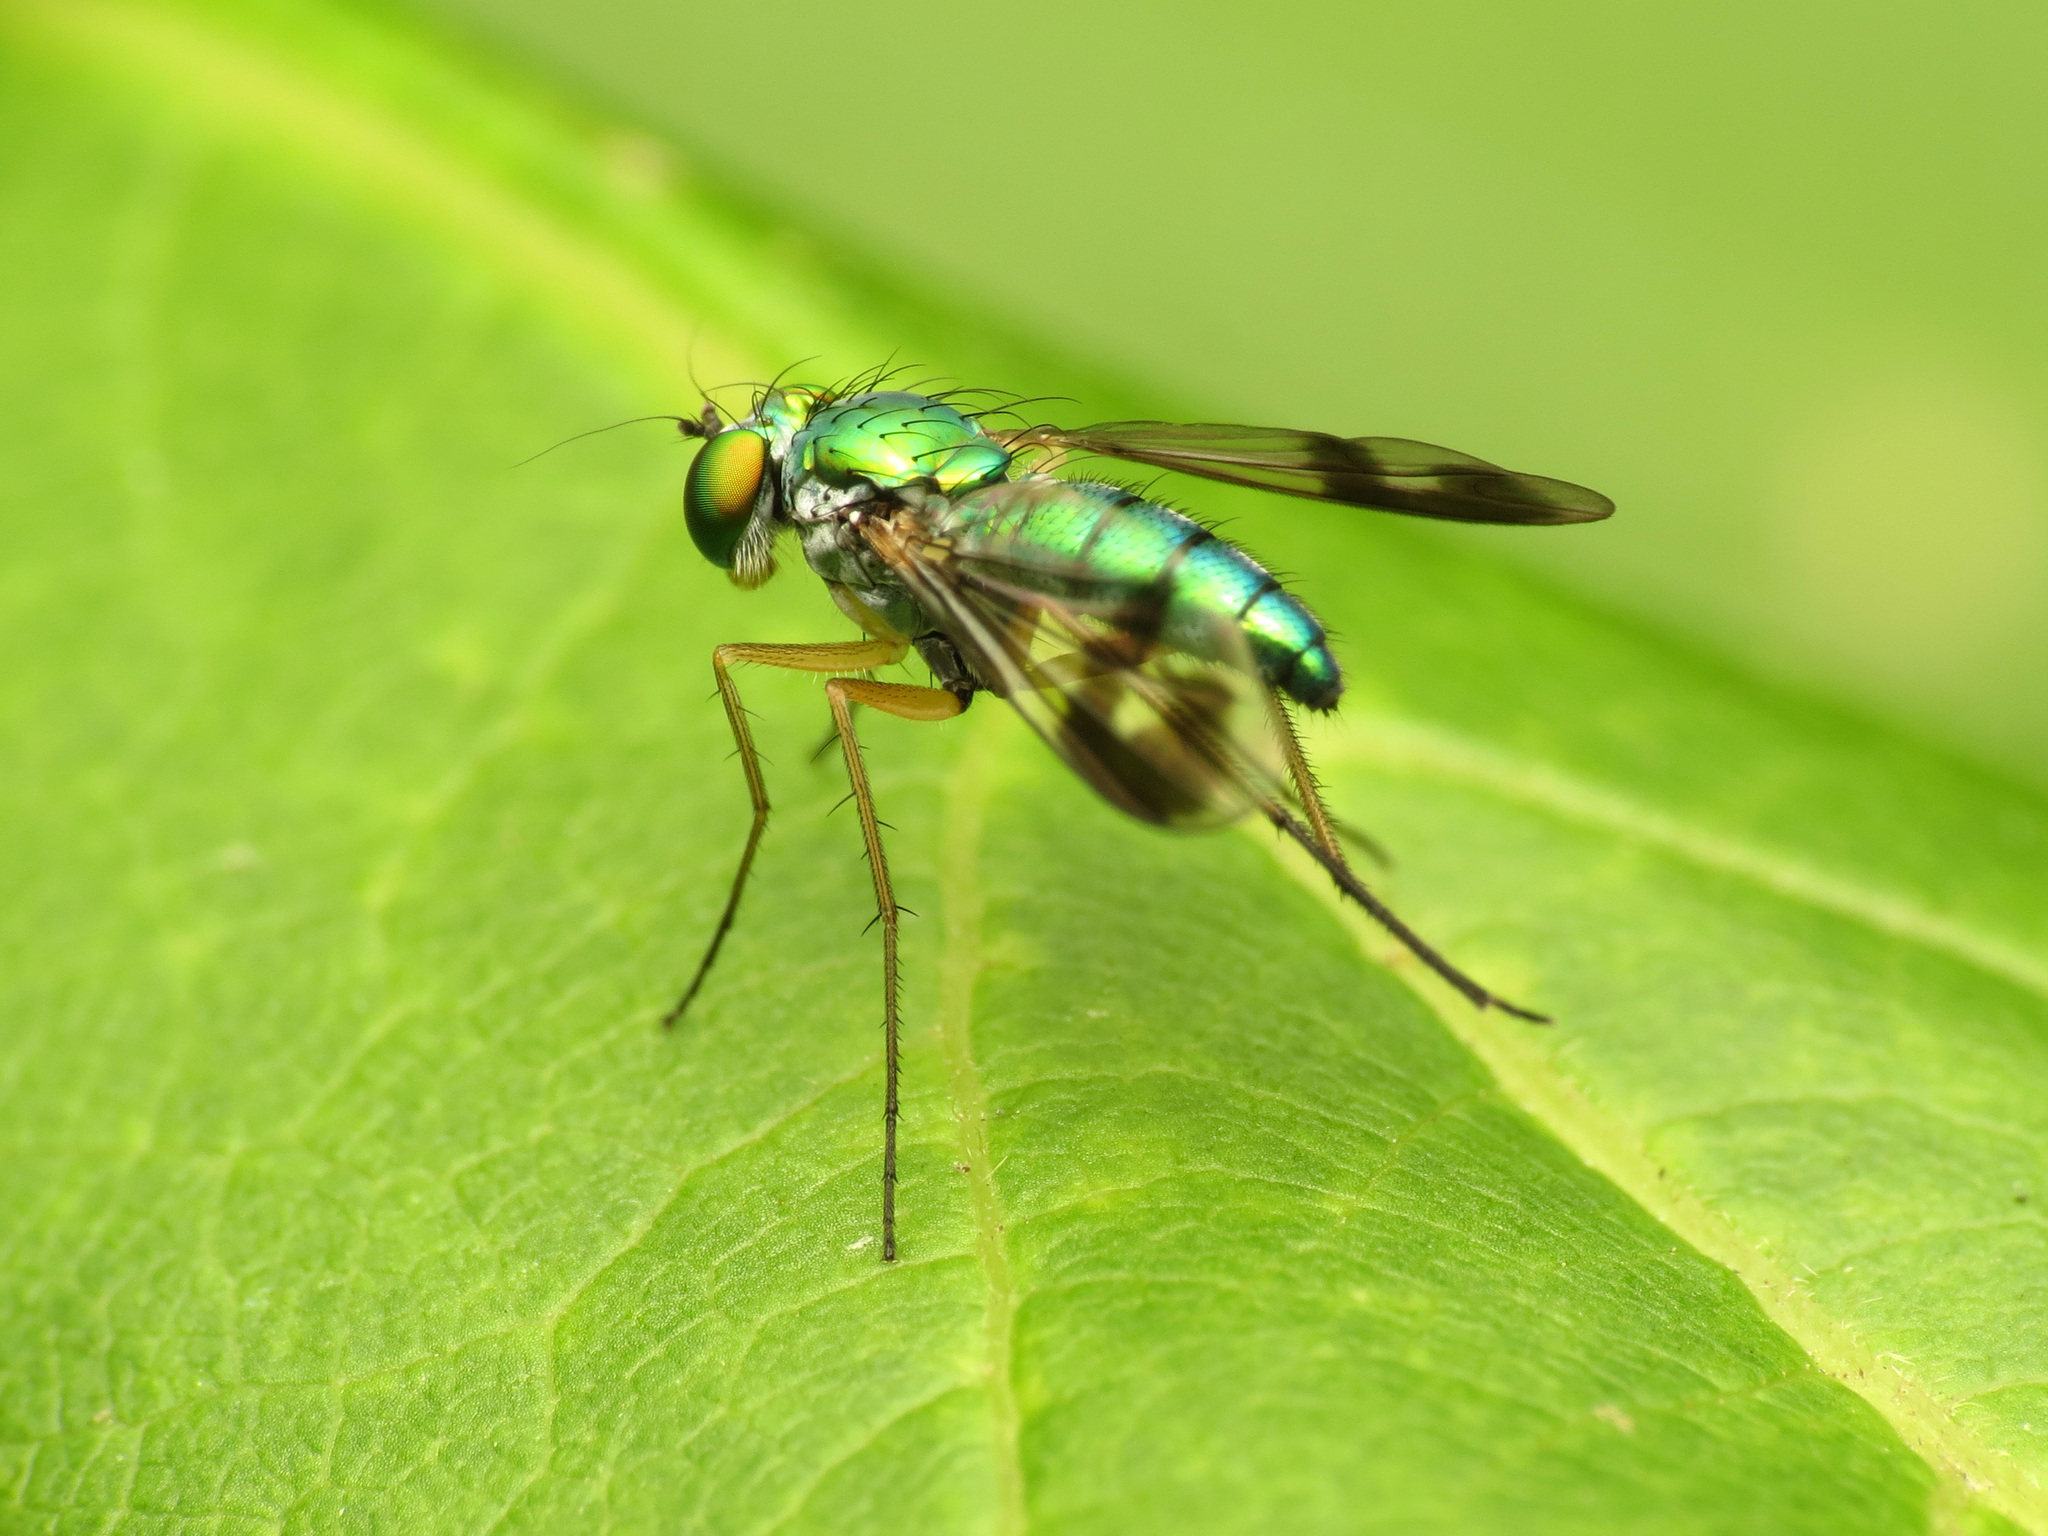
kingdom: Animalia
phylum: Arthropoda
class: Insecta
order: Diptera
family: Dolichopodidae
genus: Condylostylus
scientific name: Condylostylus
